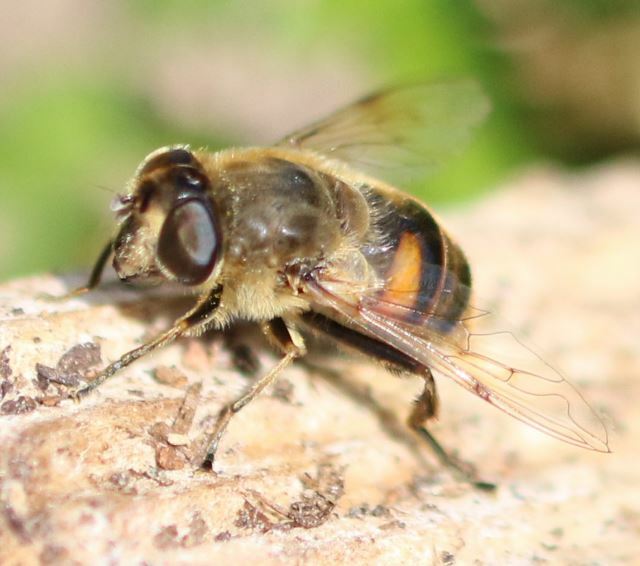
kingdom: Animalia
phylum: Arthropoda
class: Insecta
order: Diptera
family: Syrphidae
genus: Eristalis
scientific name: Eristalis tenax
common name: Drone fly
